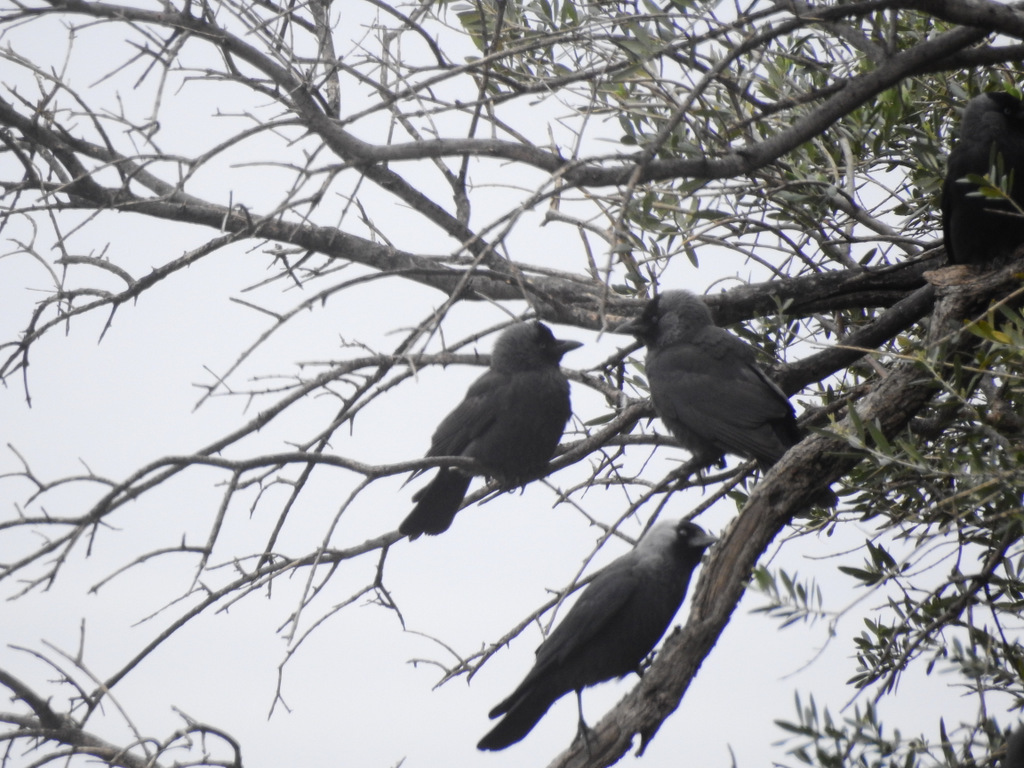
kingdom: Animalia
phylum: Chordata
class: Aves
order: Passeriformes
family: Corvidae
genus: Coloeus
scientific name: Coloeus monedula
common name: Western jackdaw
